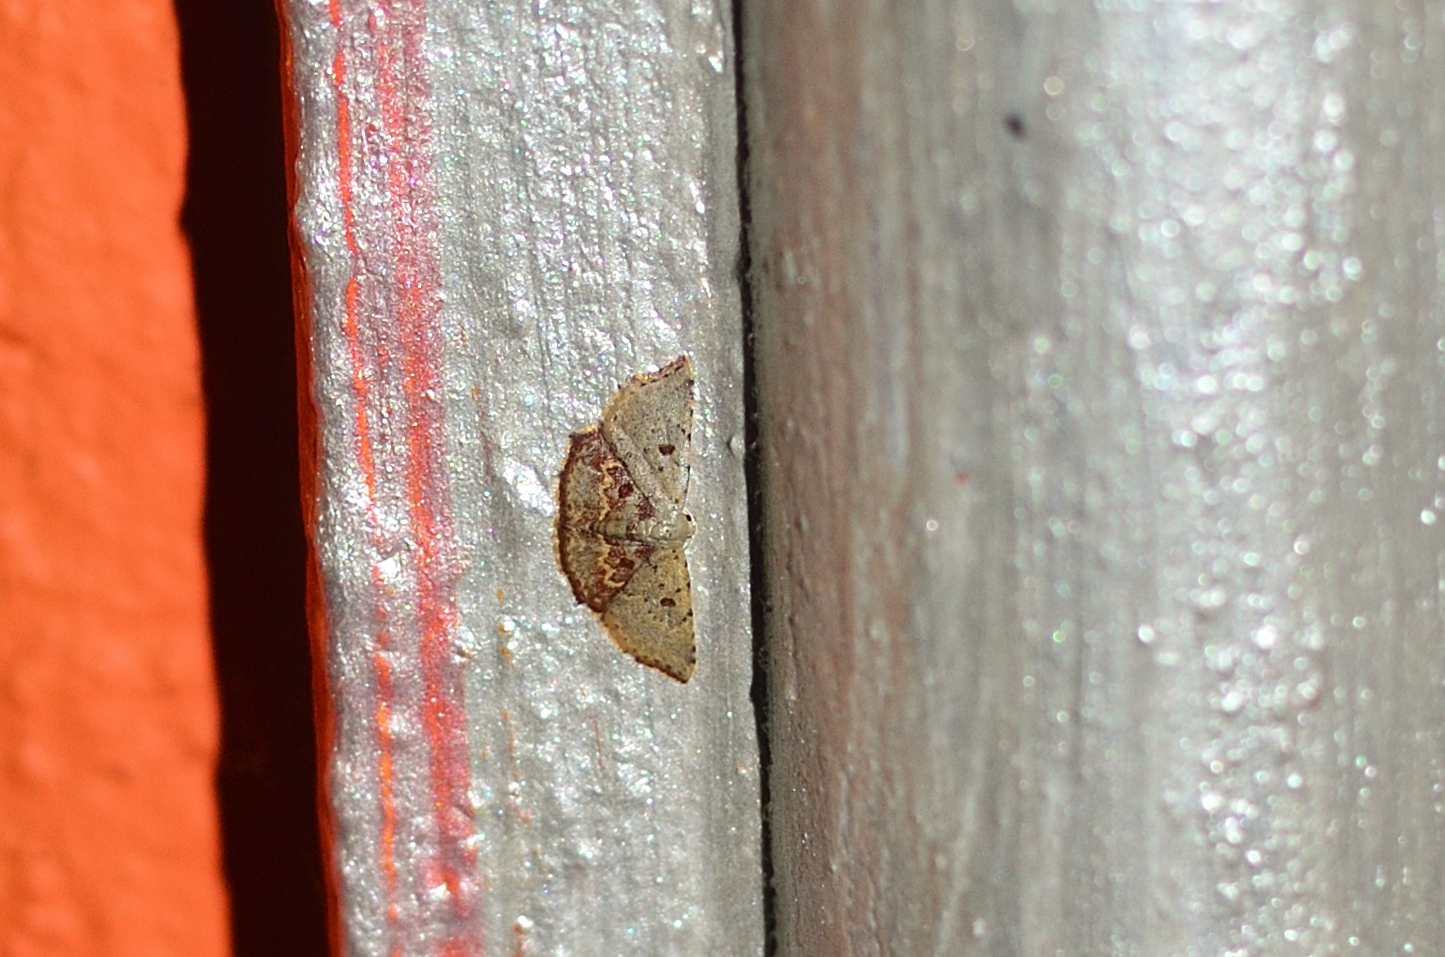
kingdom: Animalia
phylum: Arthropoda
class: Insecta
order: Lepidoptera
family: Noctuidae
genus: Enispa
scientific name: Enispa minuta
